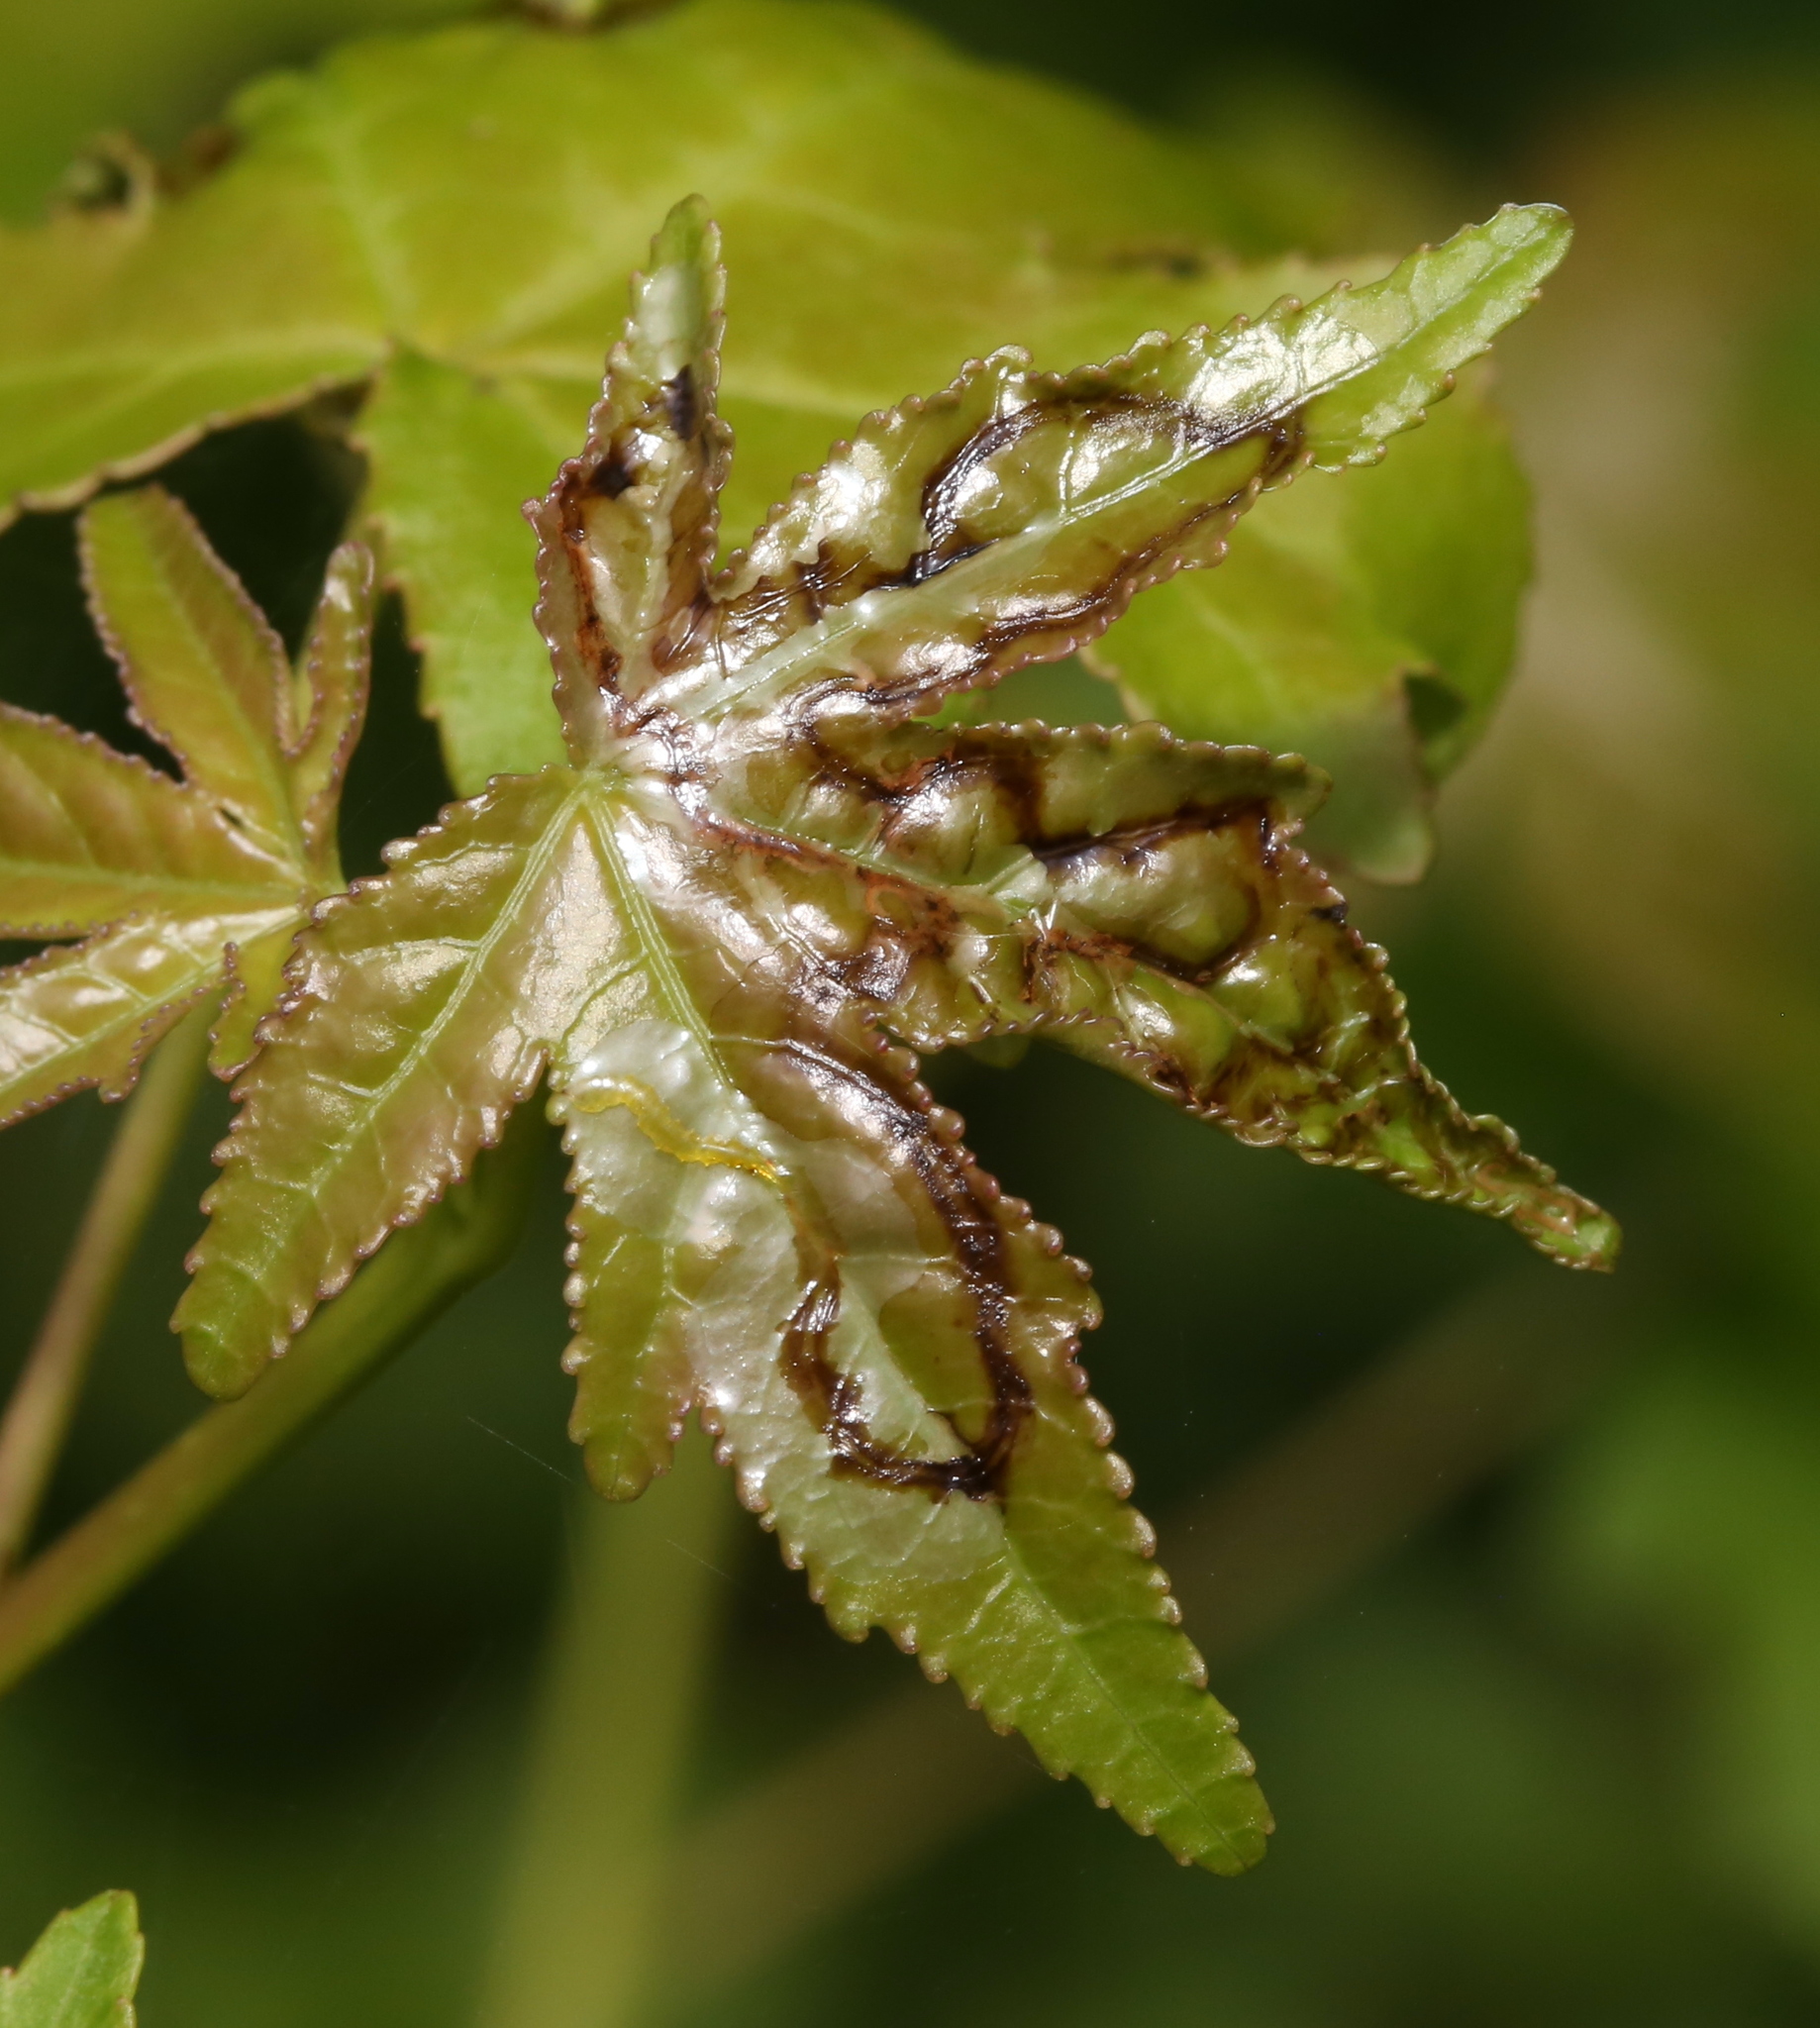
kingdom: Animalia
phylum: Arthropoda
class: Insecta
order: Lepidoptera
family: Gracillariidae
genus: Phyllocnistis
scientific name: Phyllocnistis liquidambarisella
